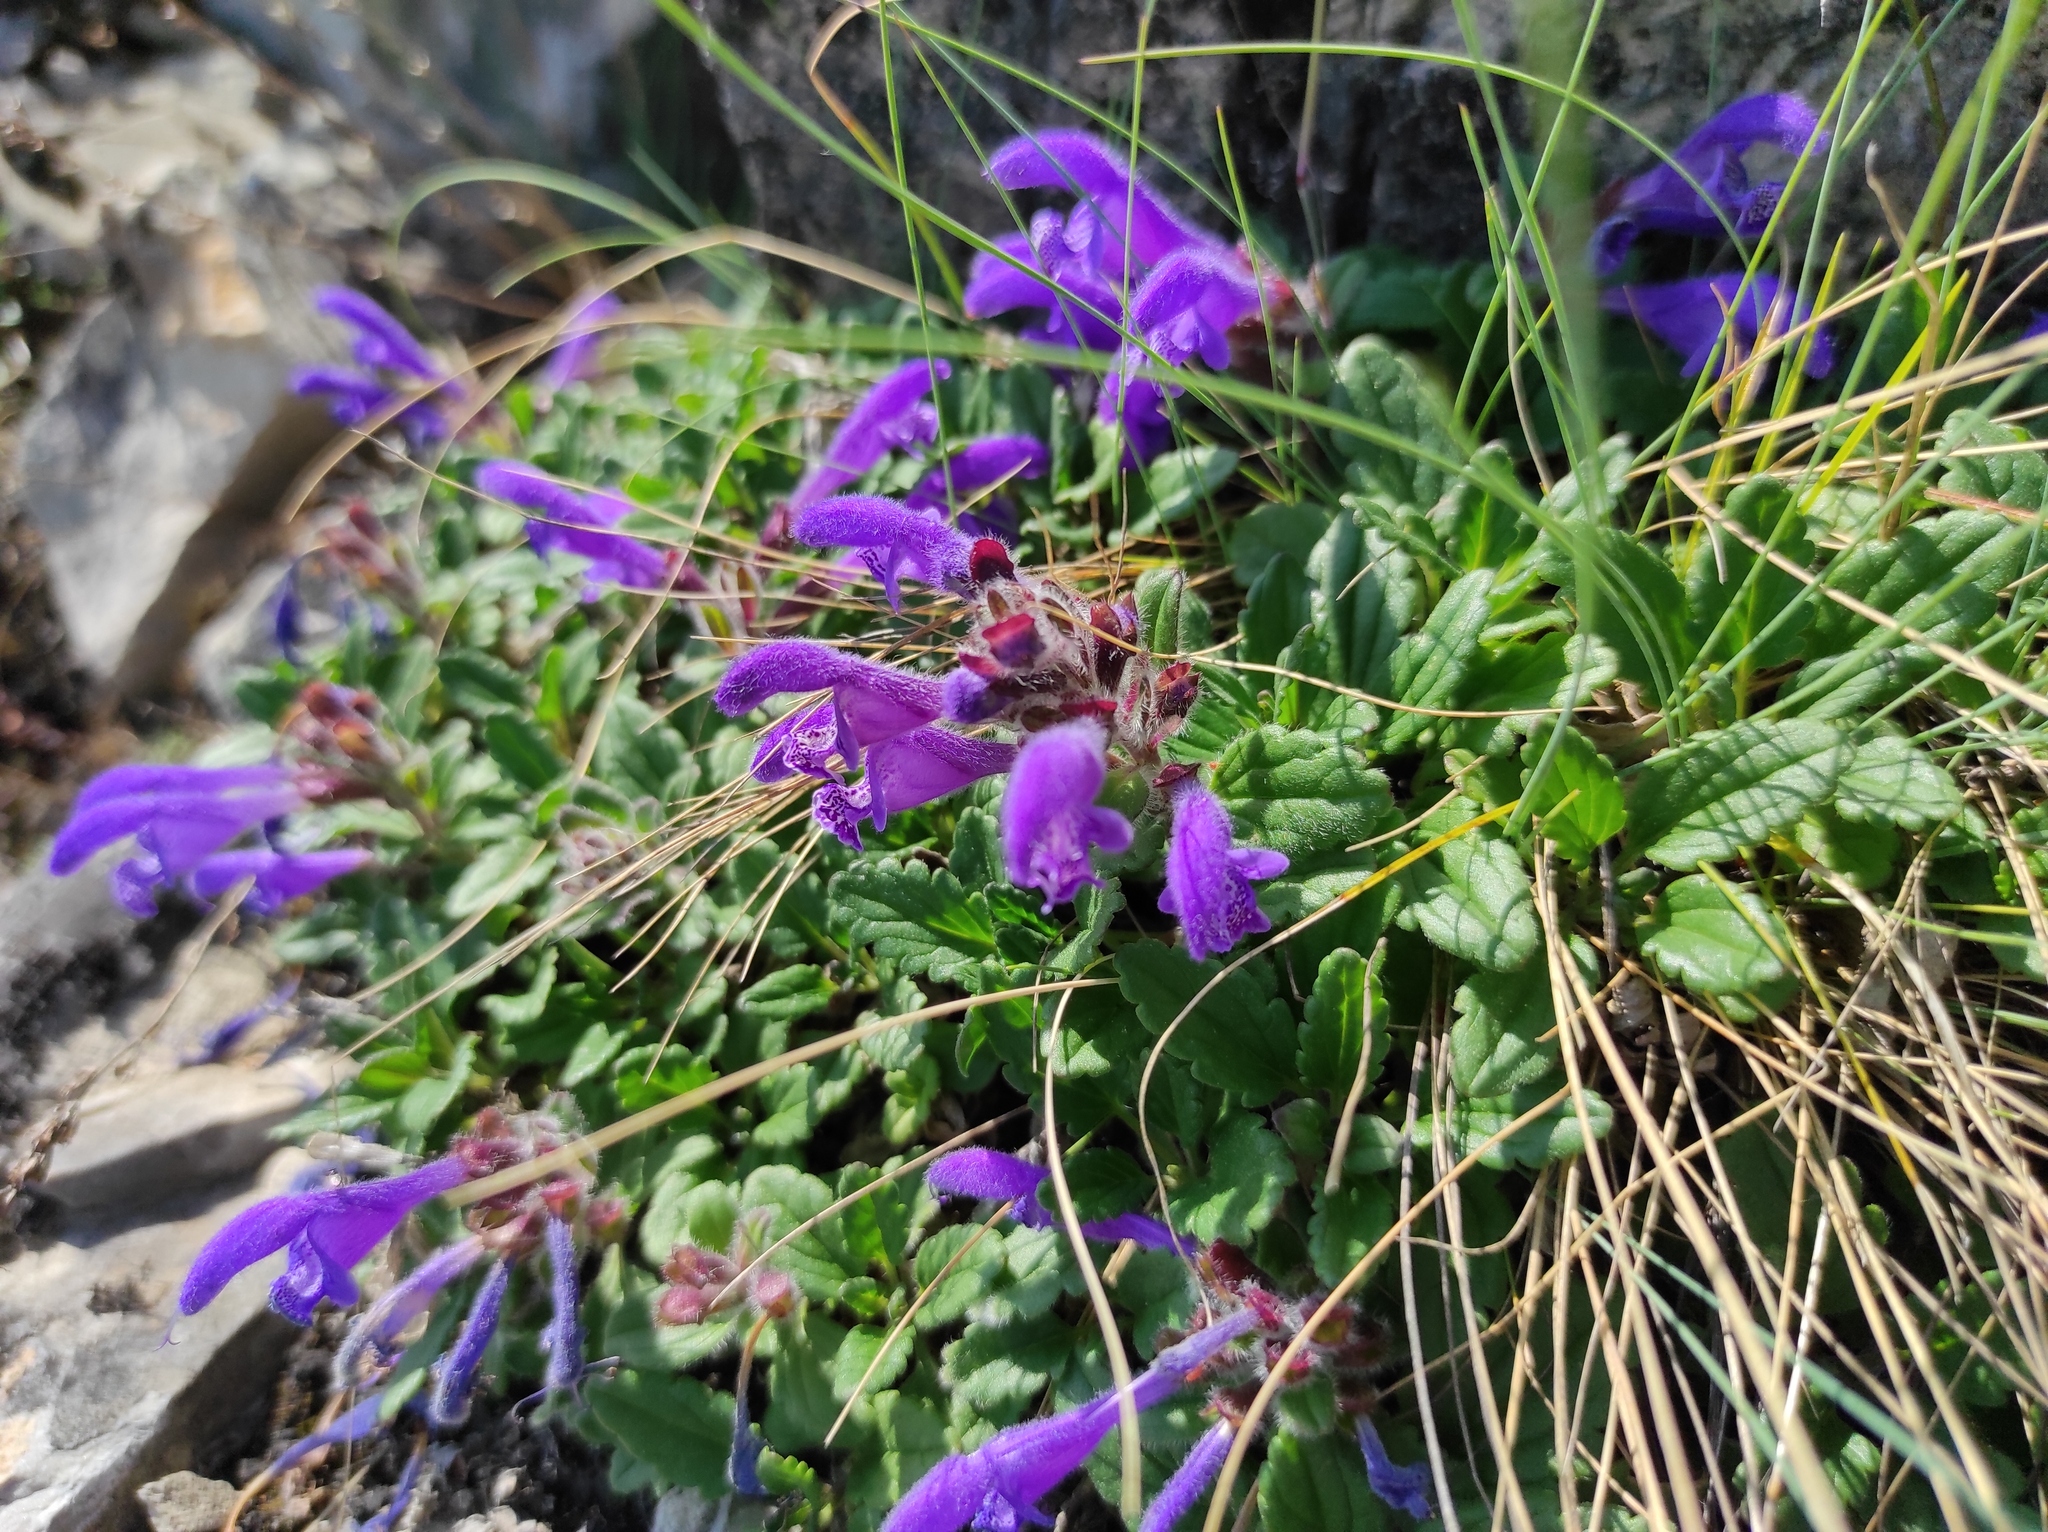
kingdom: Plantae
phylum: Tracheophyta
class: Magnoliopsida
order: Lamiales
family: Lamiaceae
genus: Dracocephalum
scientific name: Dracocephalum stellerianum
